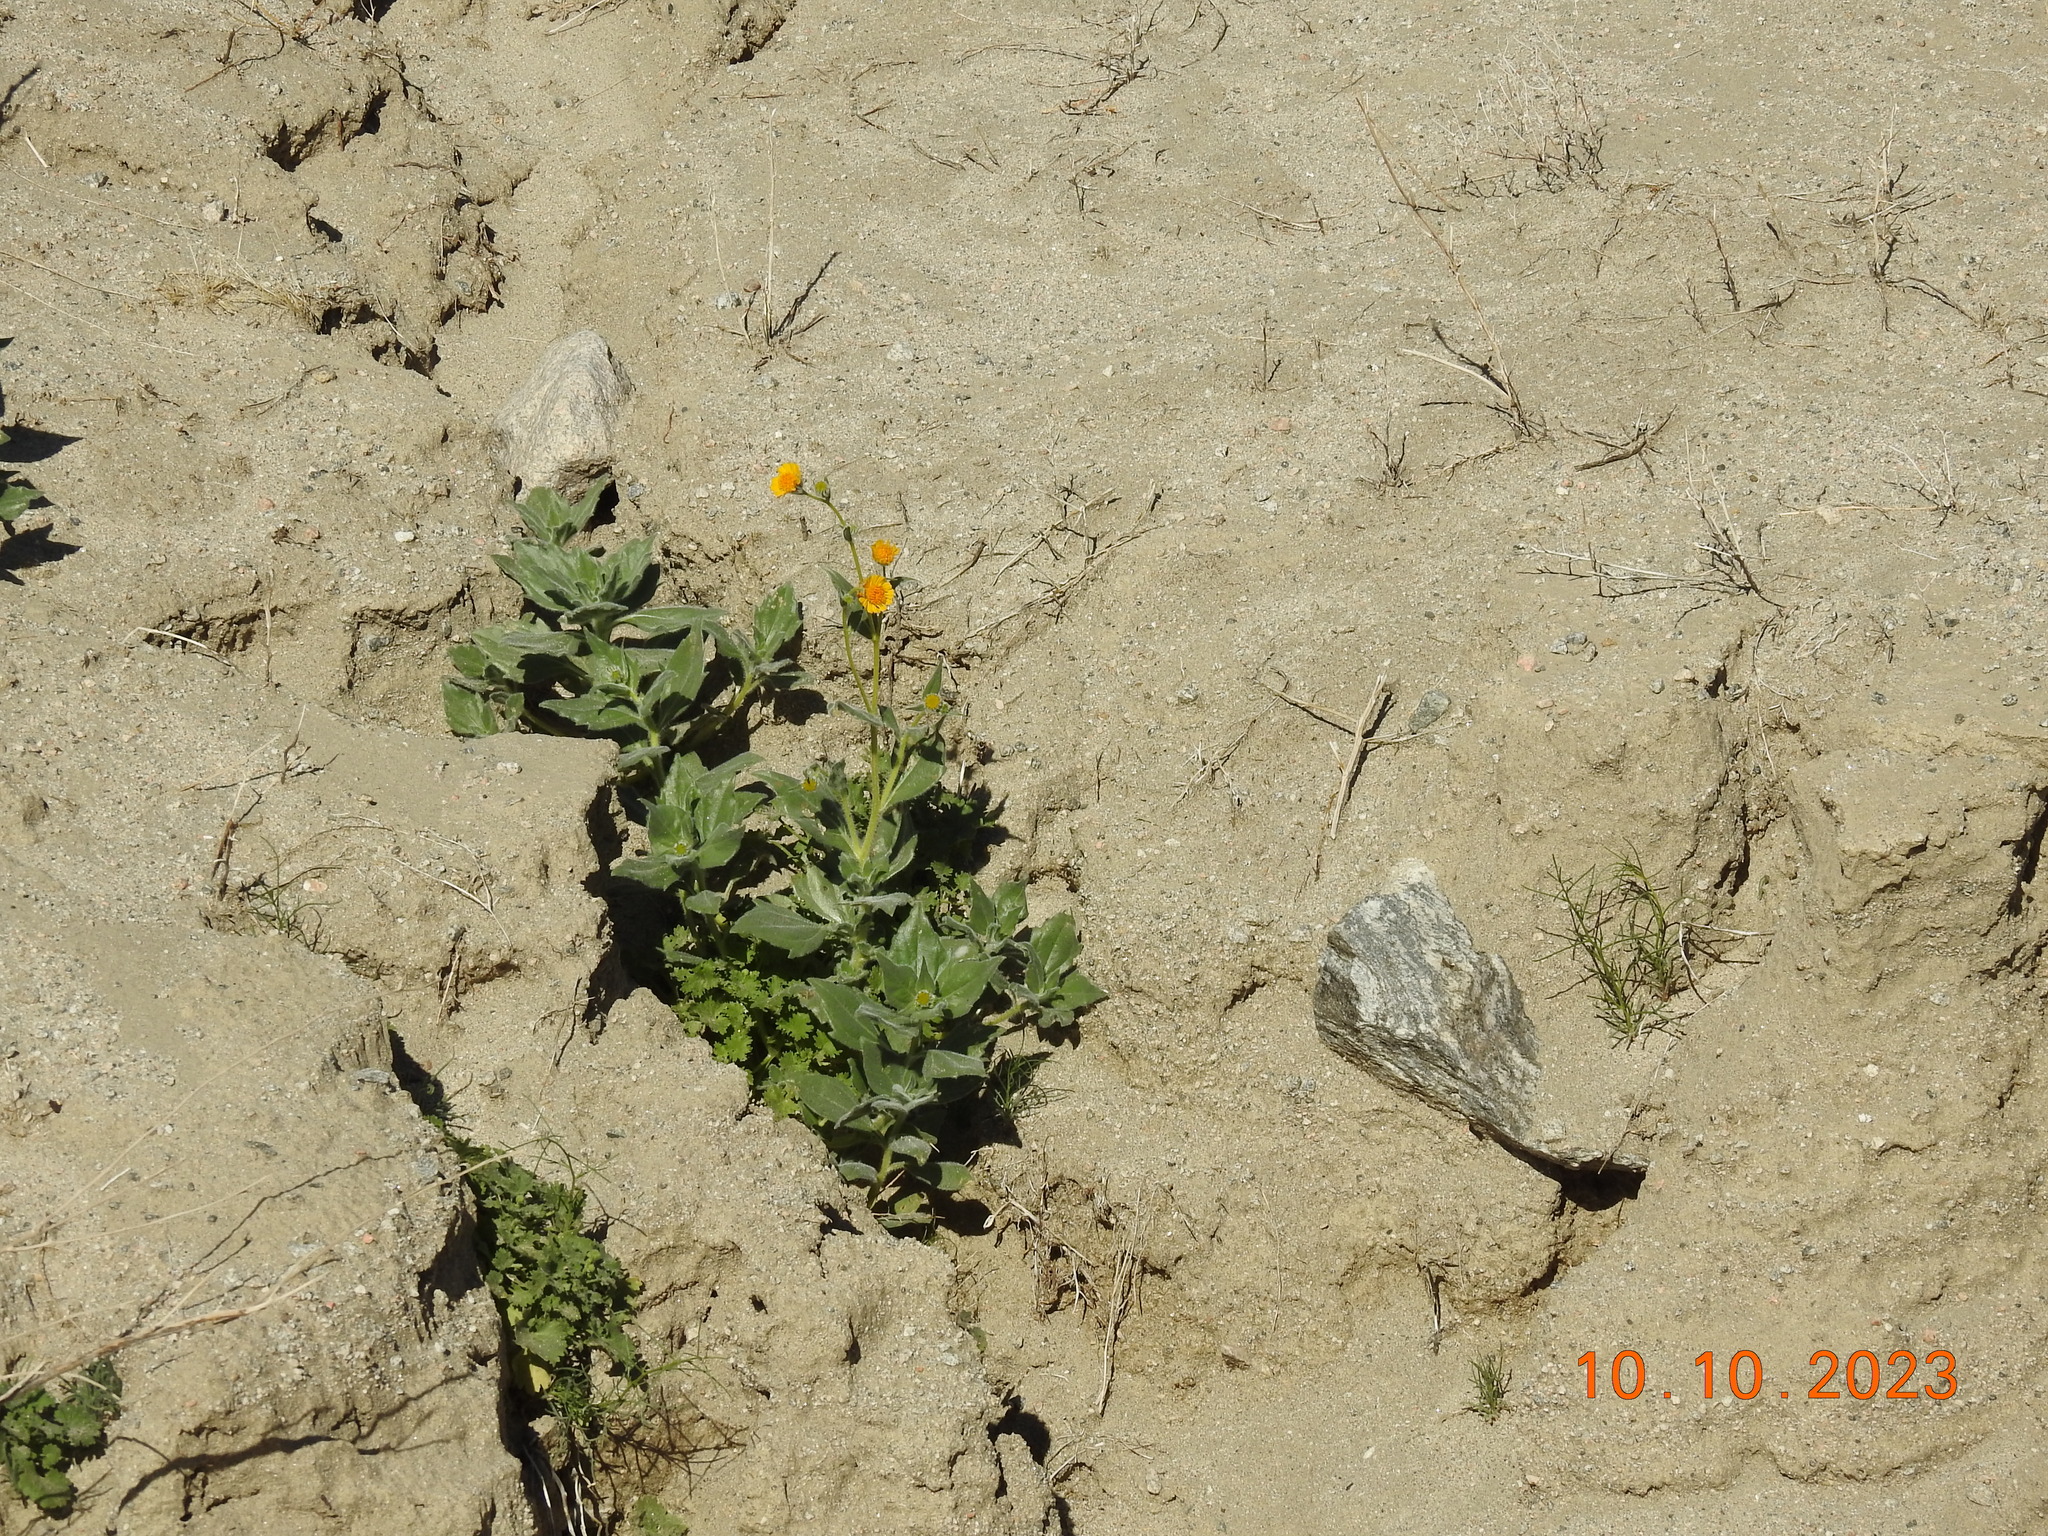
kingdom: Plantae
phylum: Tracheophyta
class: Magnoliopsida
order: Asterales
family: Asteraceae
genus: Geraea
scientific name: Geraea canescens
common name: Desert-gold
